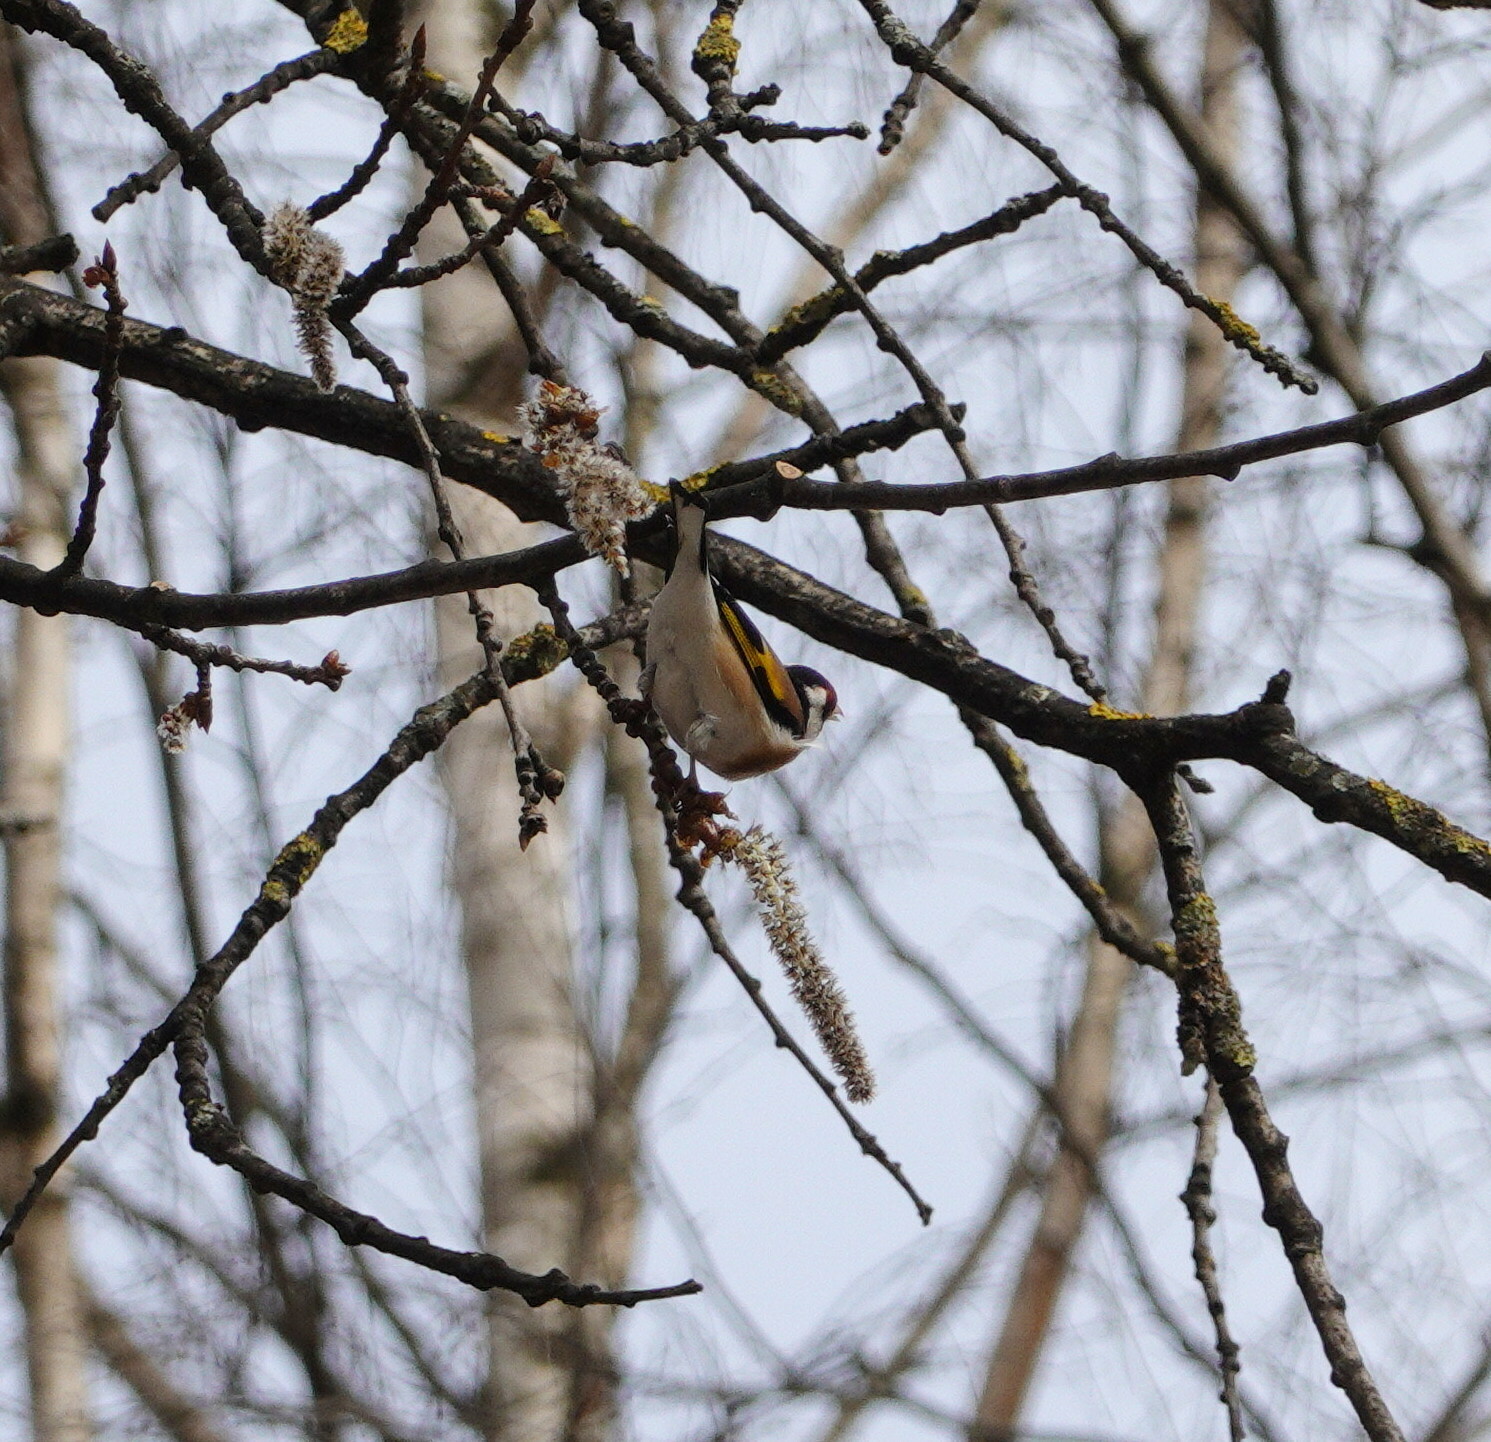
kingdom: Animalia
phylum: Chordata
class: Aves
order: Passeriformes
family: Fringillidae
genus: Carduelis
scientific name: Carduelis carduelis
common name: European goldfinch
